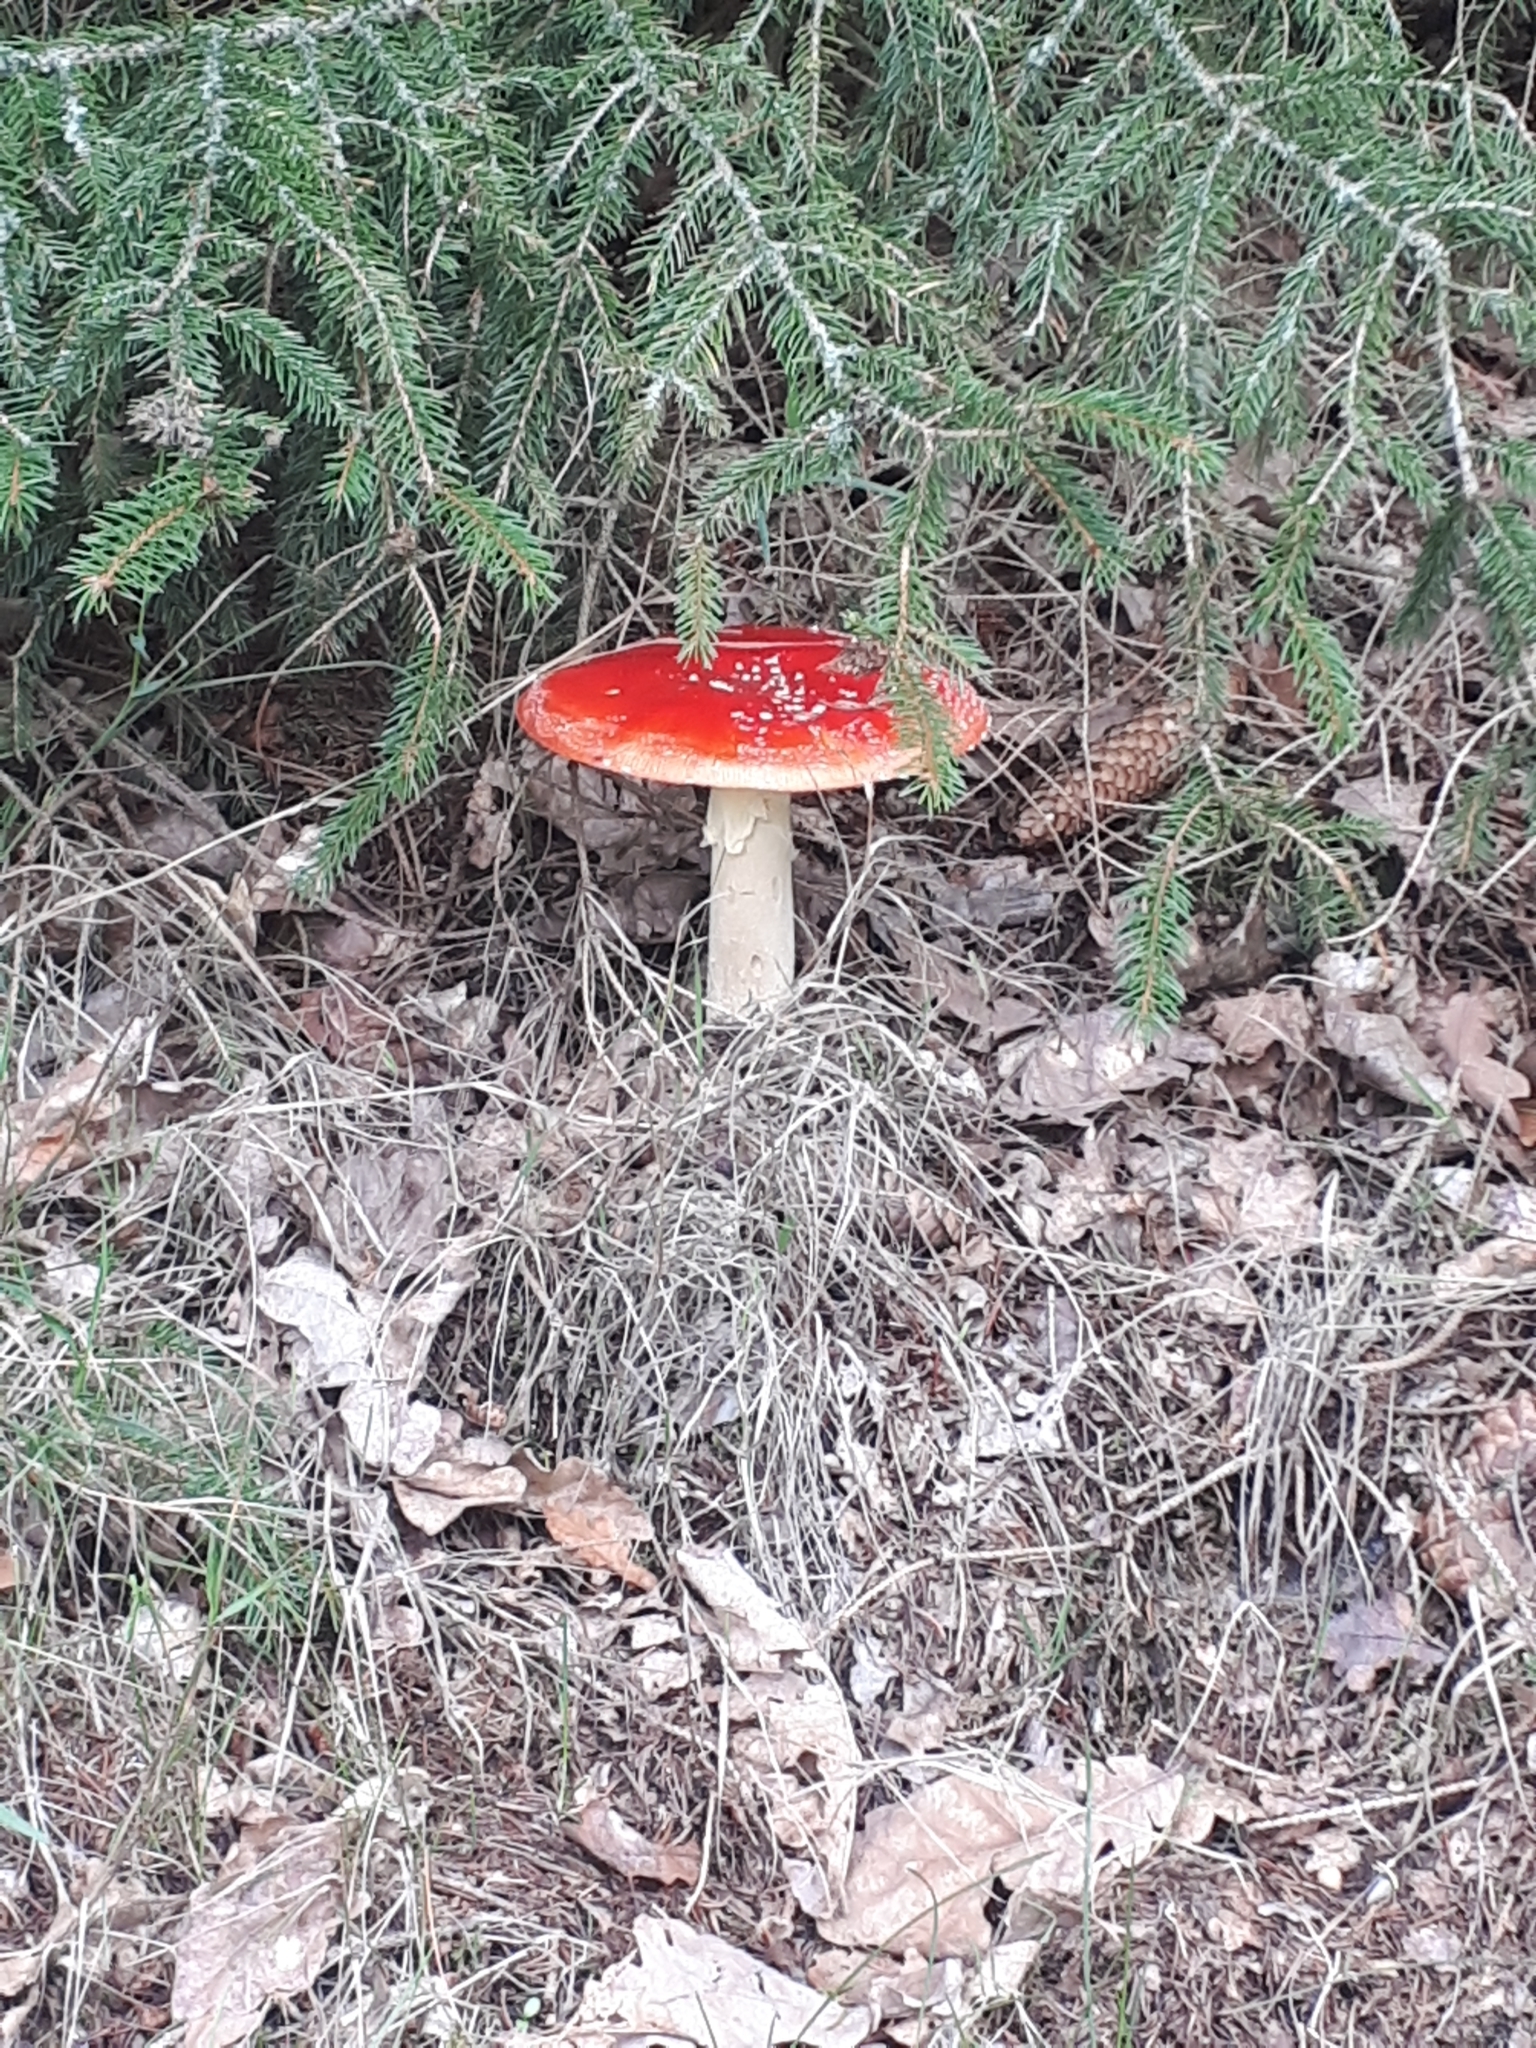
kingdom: Fungi
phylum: Basidiomycota
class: Agaricomycetes
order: Agaricales
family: Amanitaceae
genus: Amanita
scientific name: Amanita muscaria
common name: Fly agaric
